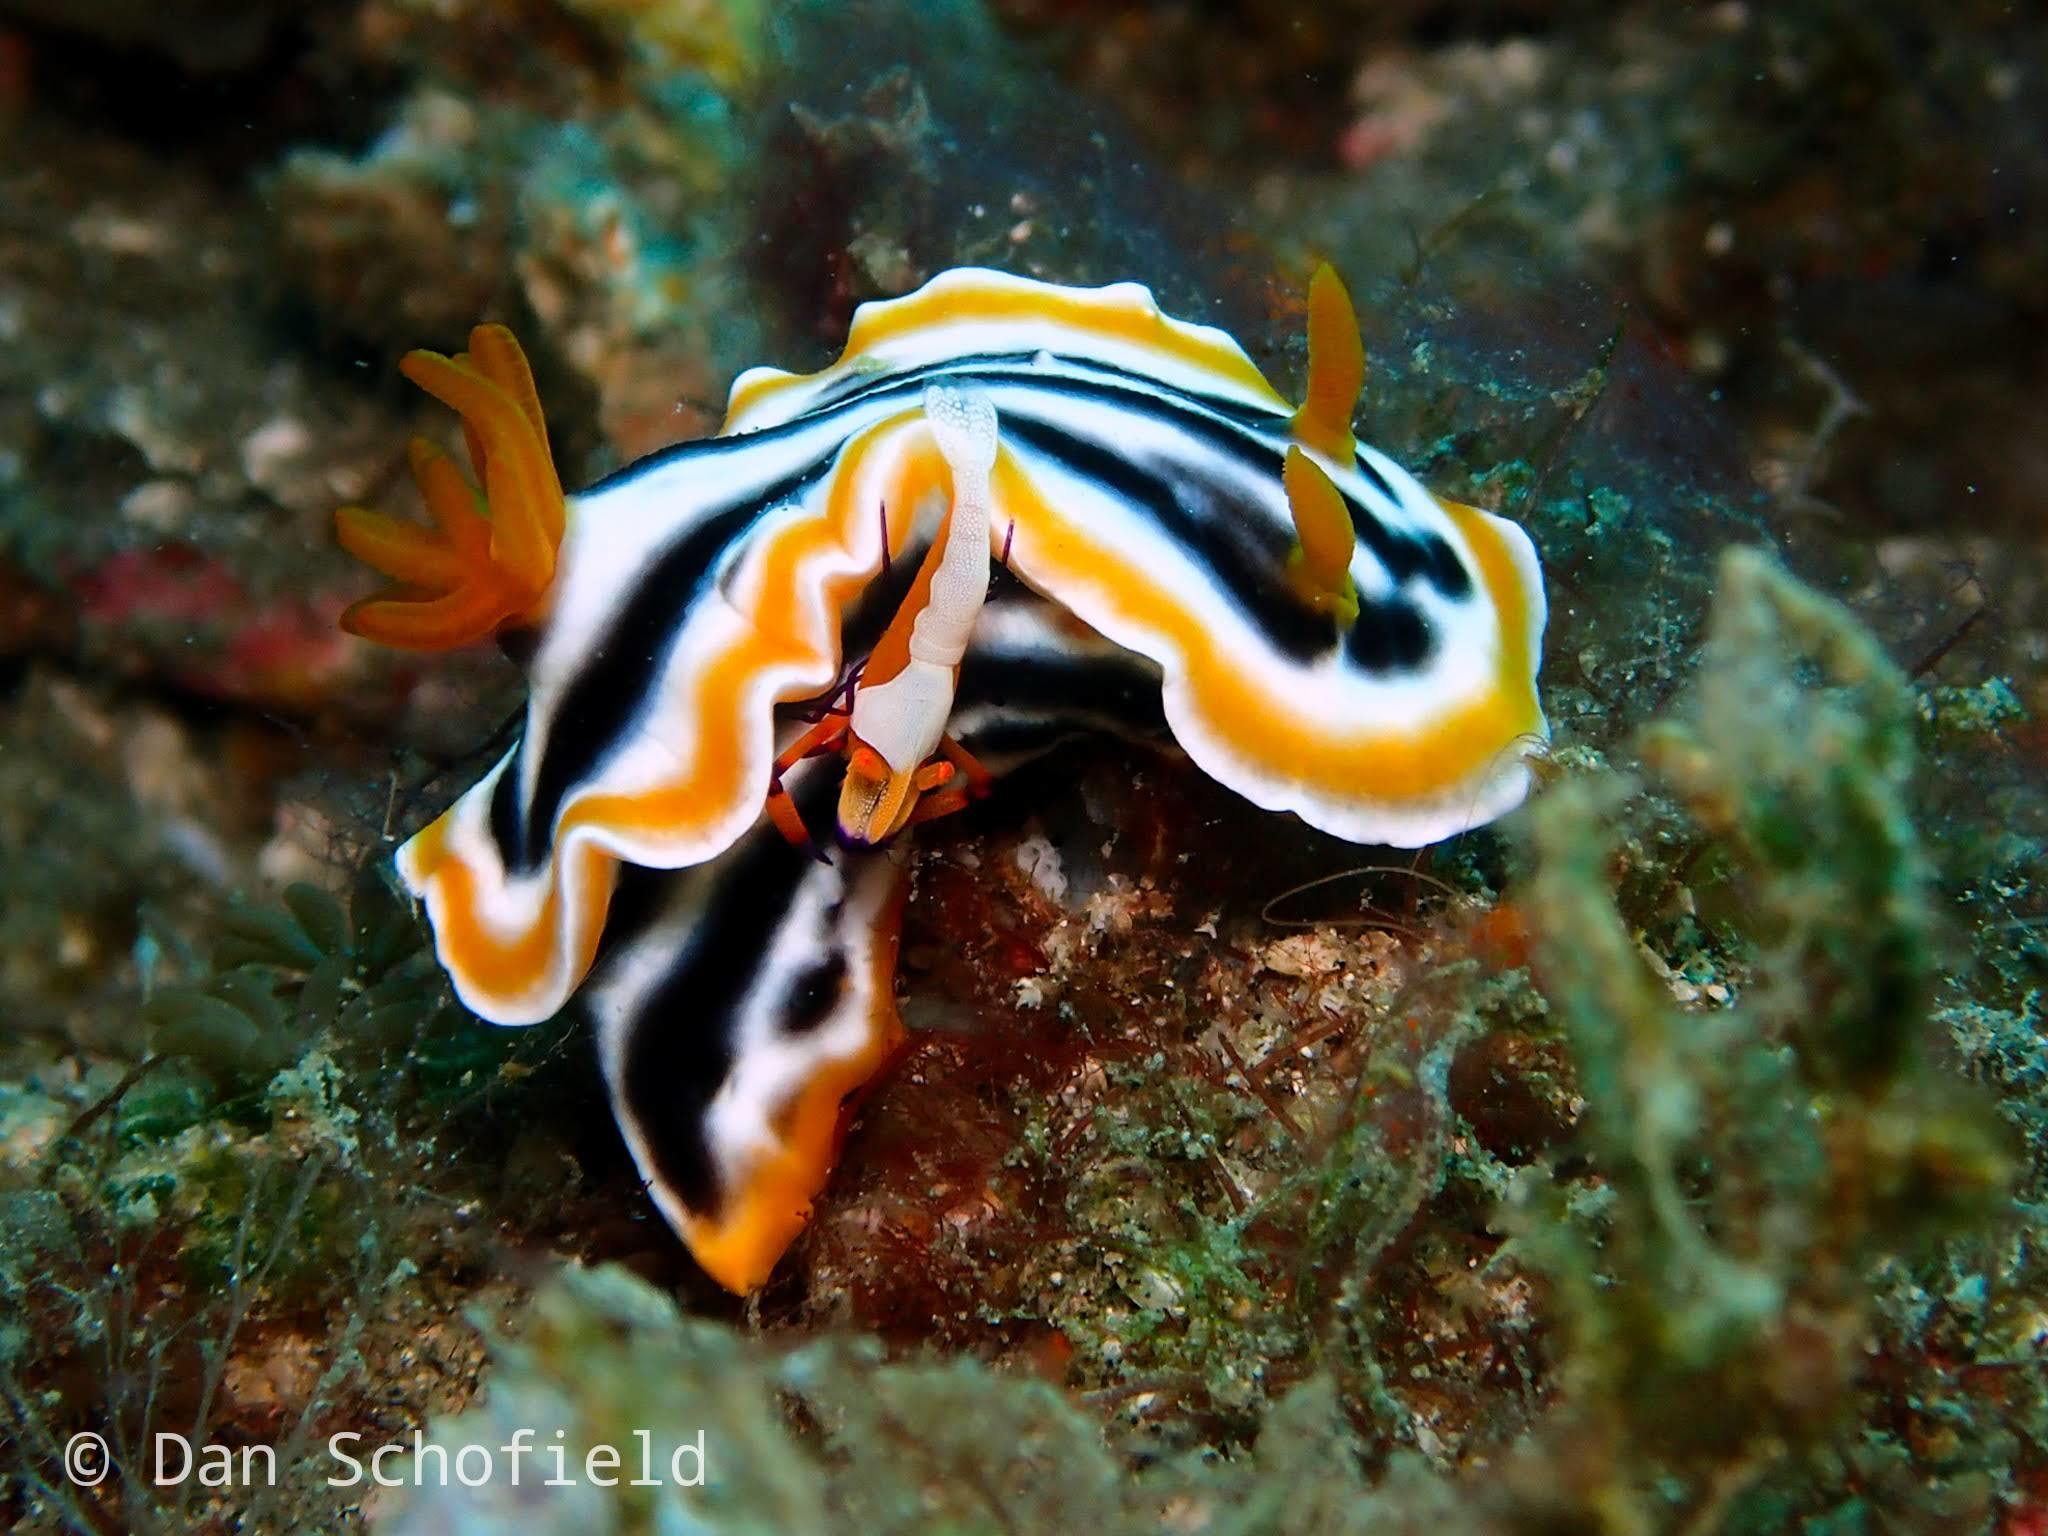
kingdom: Animalia
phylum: Arthropoda
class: Malacostraca
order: Decapoda
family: Palaemonidae
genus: Periclimenes
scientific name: Periclimenes rex
